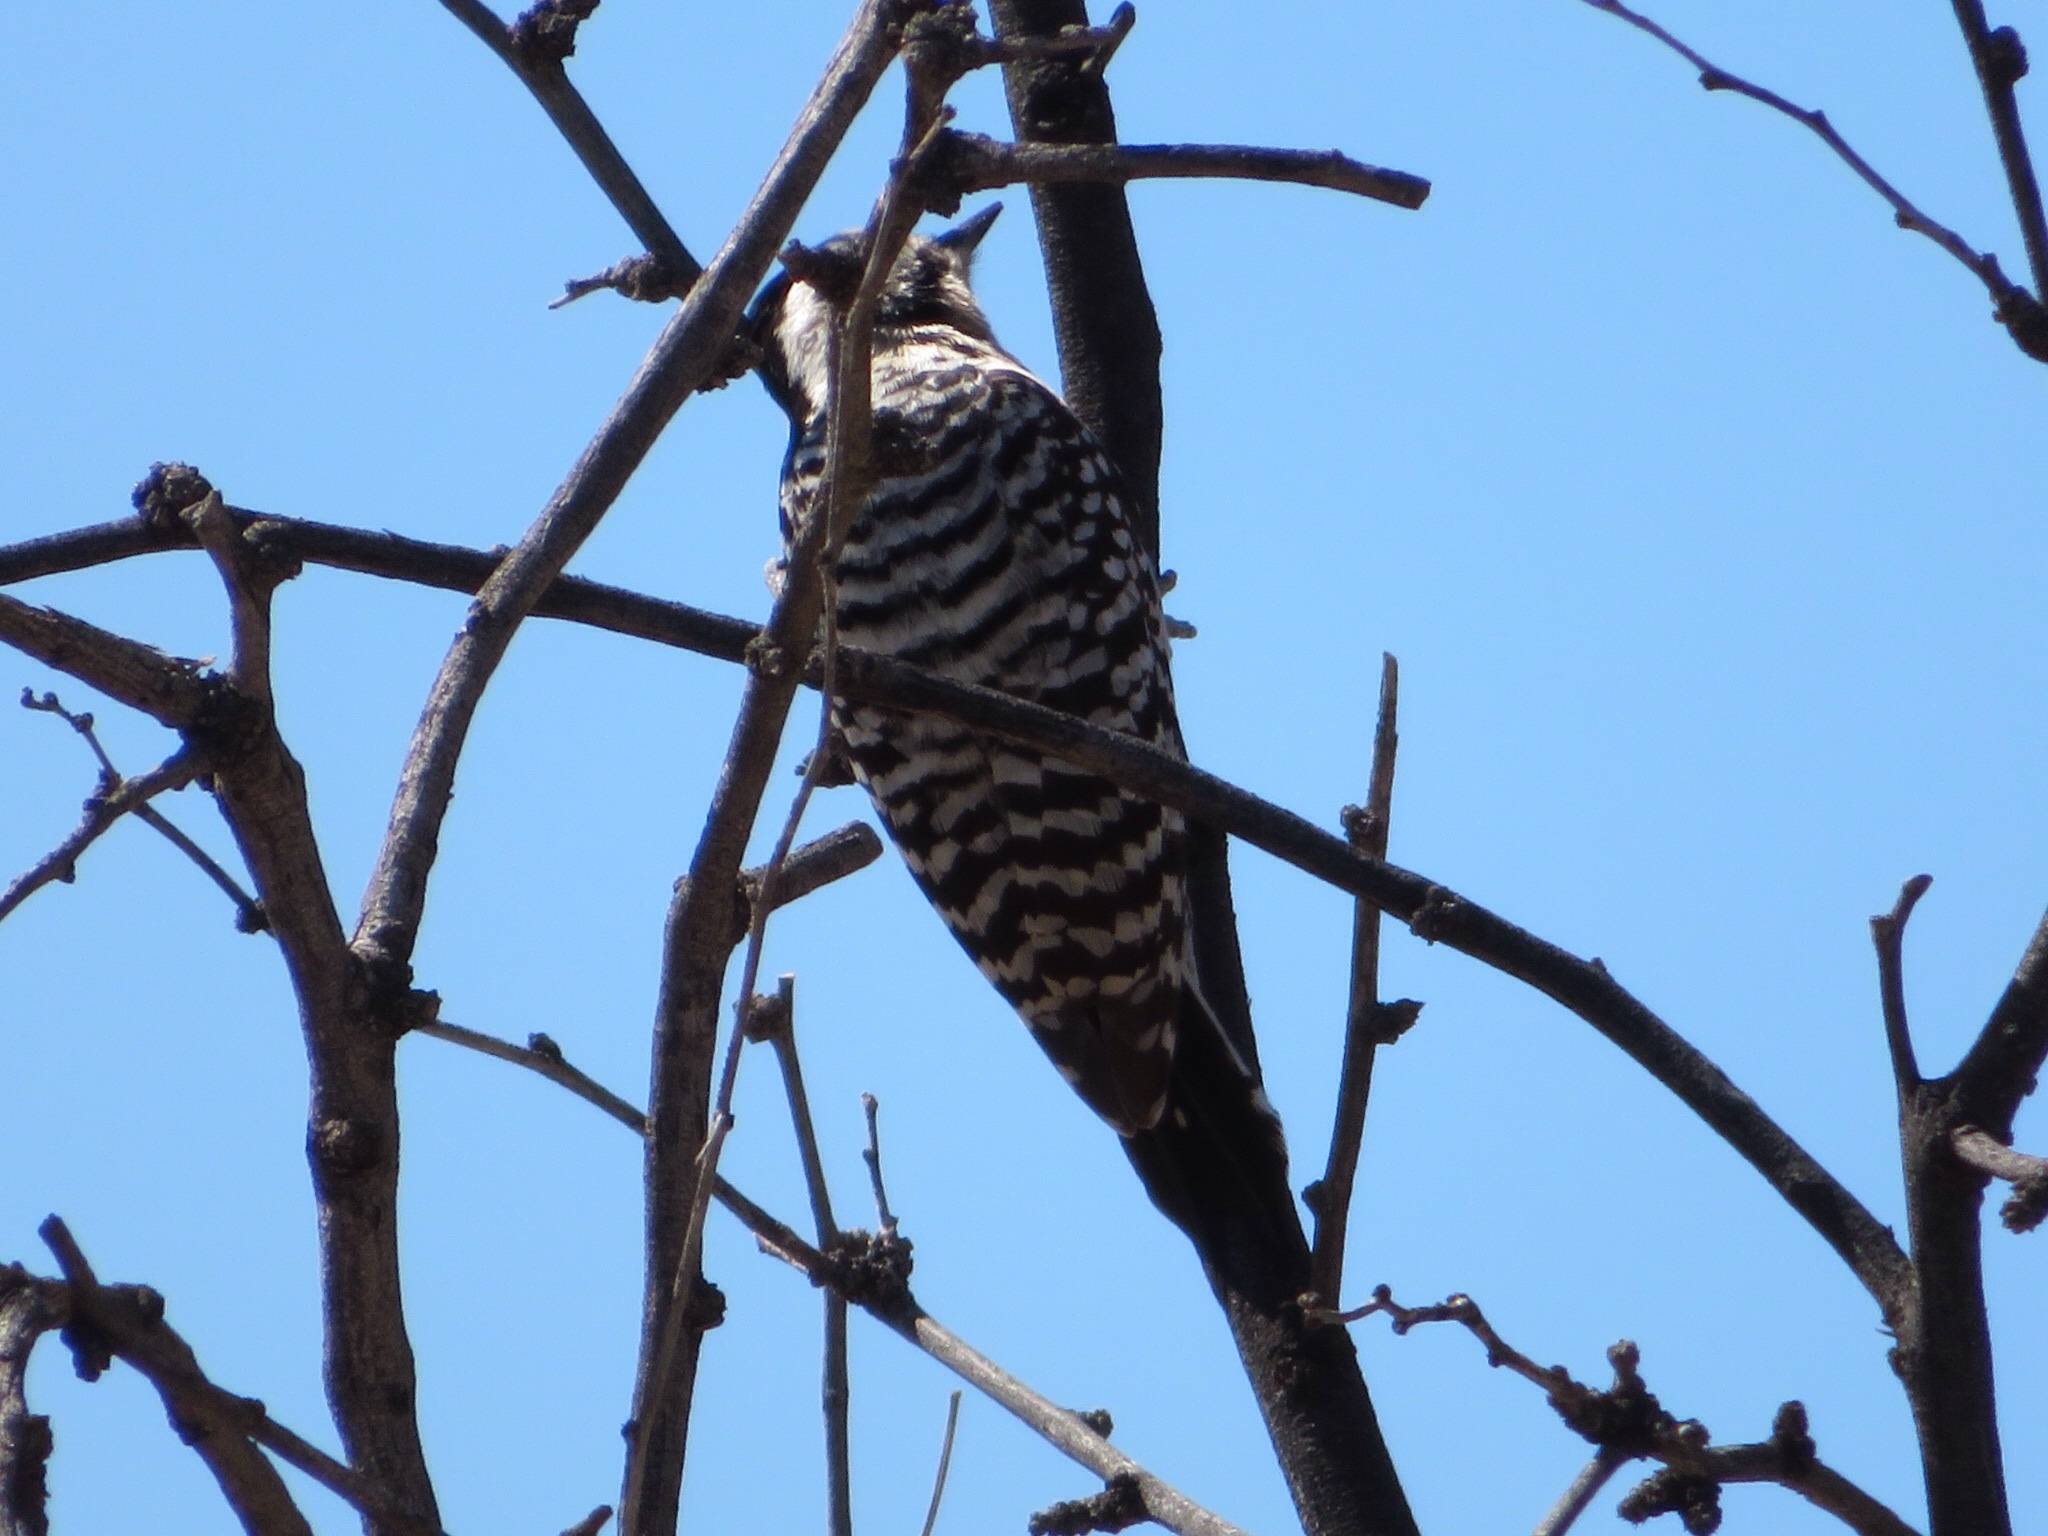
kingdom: Animalia
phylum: Chordata
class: Aves
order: Piciformes
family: Picidae
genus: Dryobates
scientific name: Dryobates scalaris
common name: Ladder-backed woodpecker
